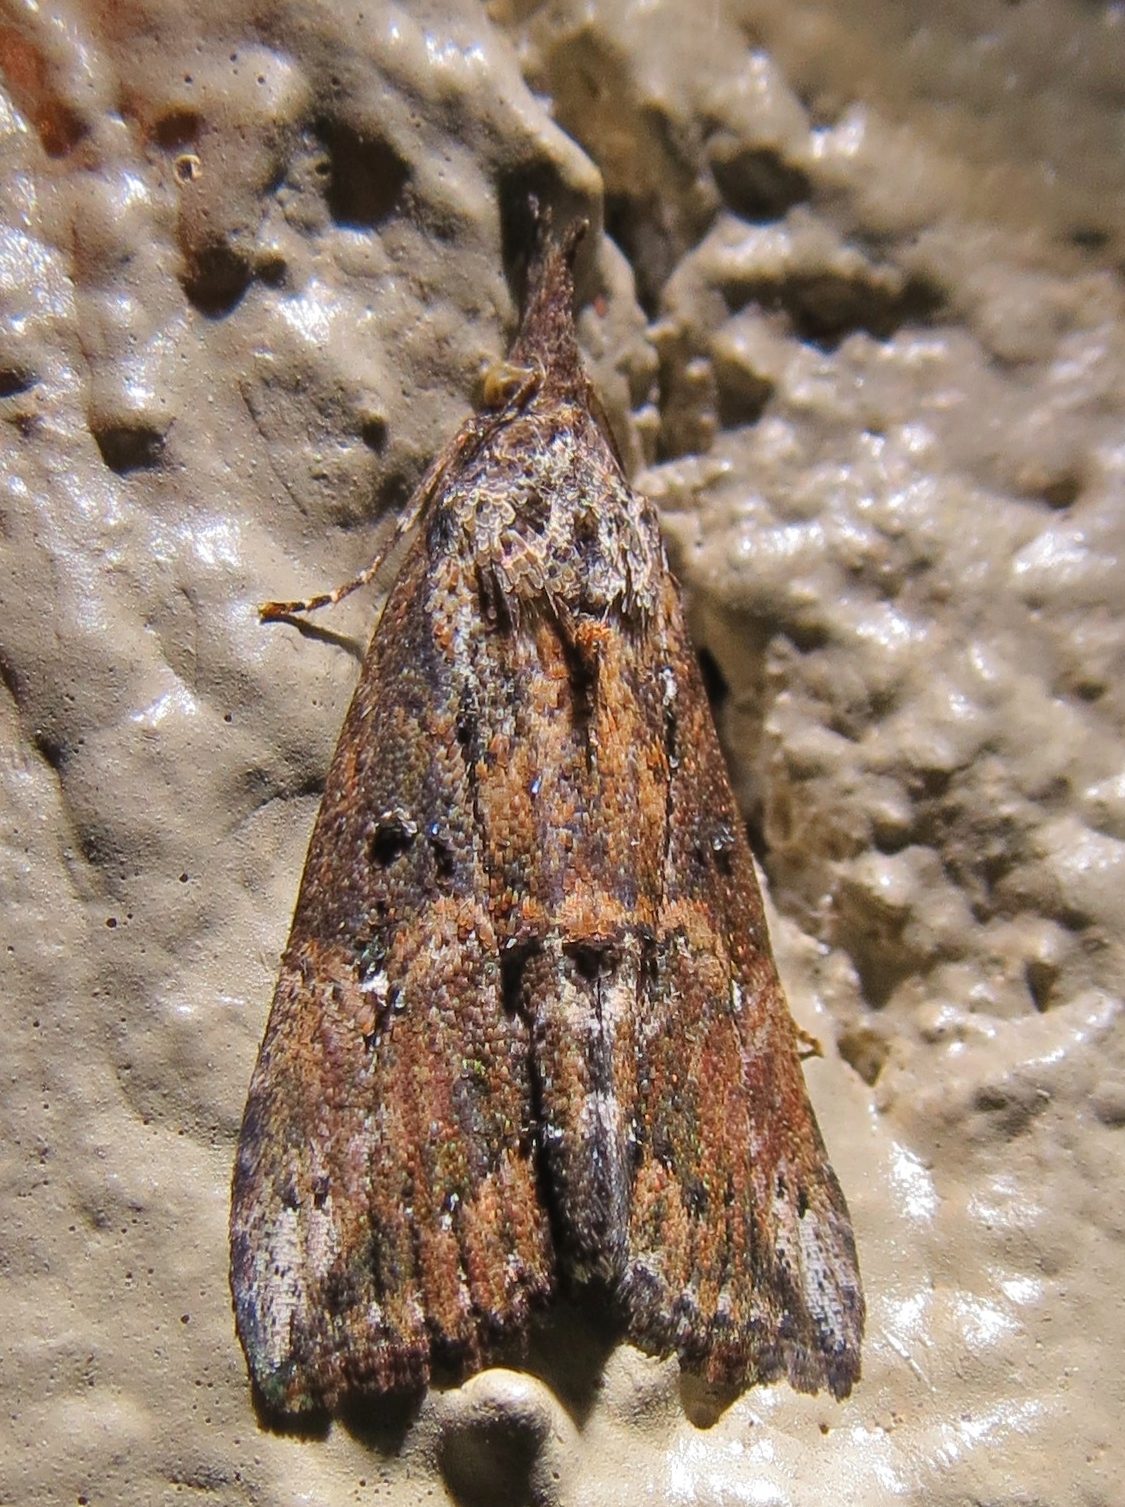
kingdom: Animalia
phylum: Arthropoda
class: Insecta
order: Lepidoptera
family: Erebidae
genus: Hypena
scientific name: Hypena scabra
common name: Green cloverworm
